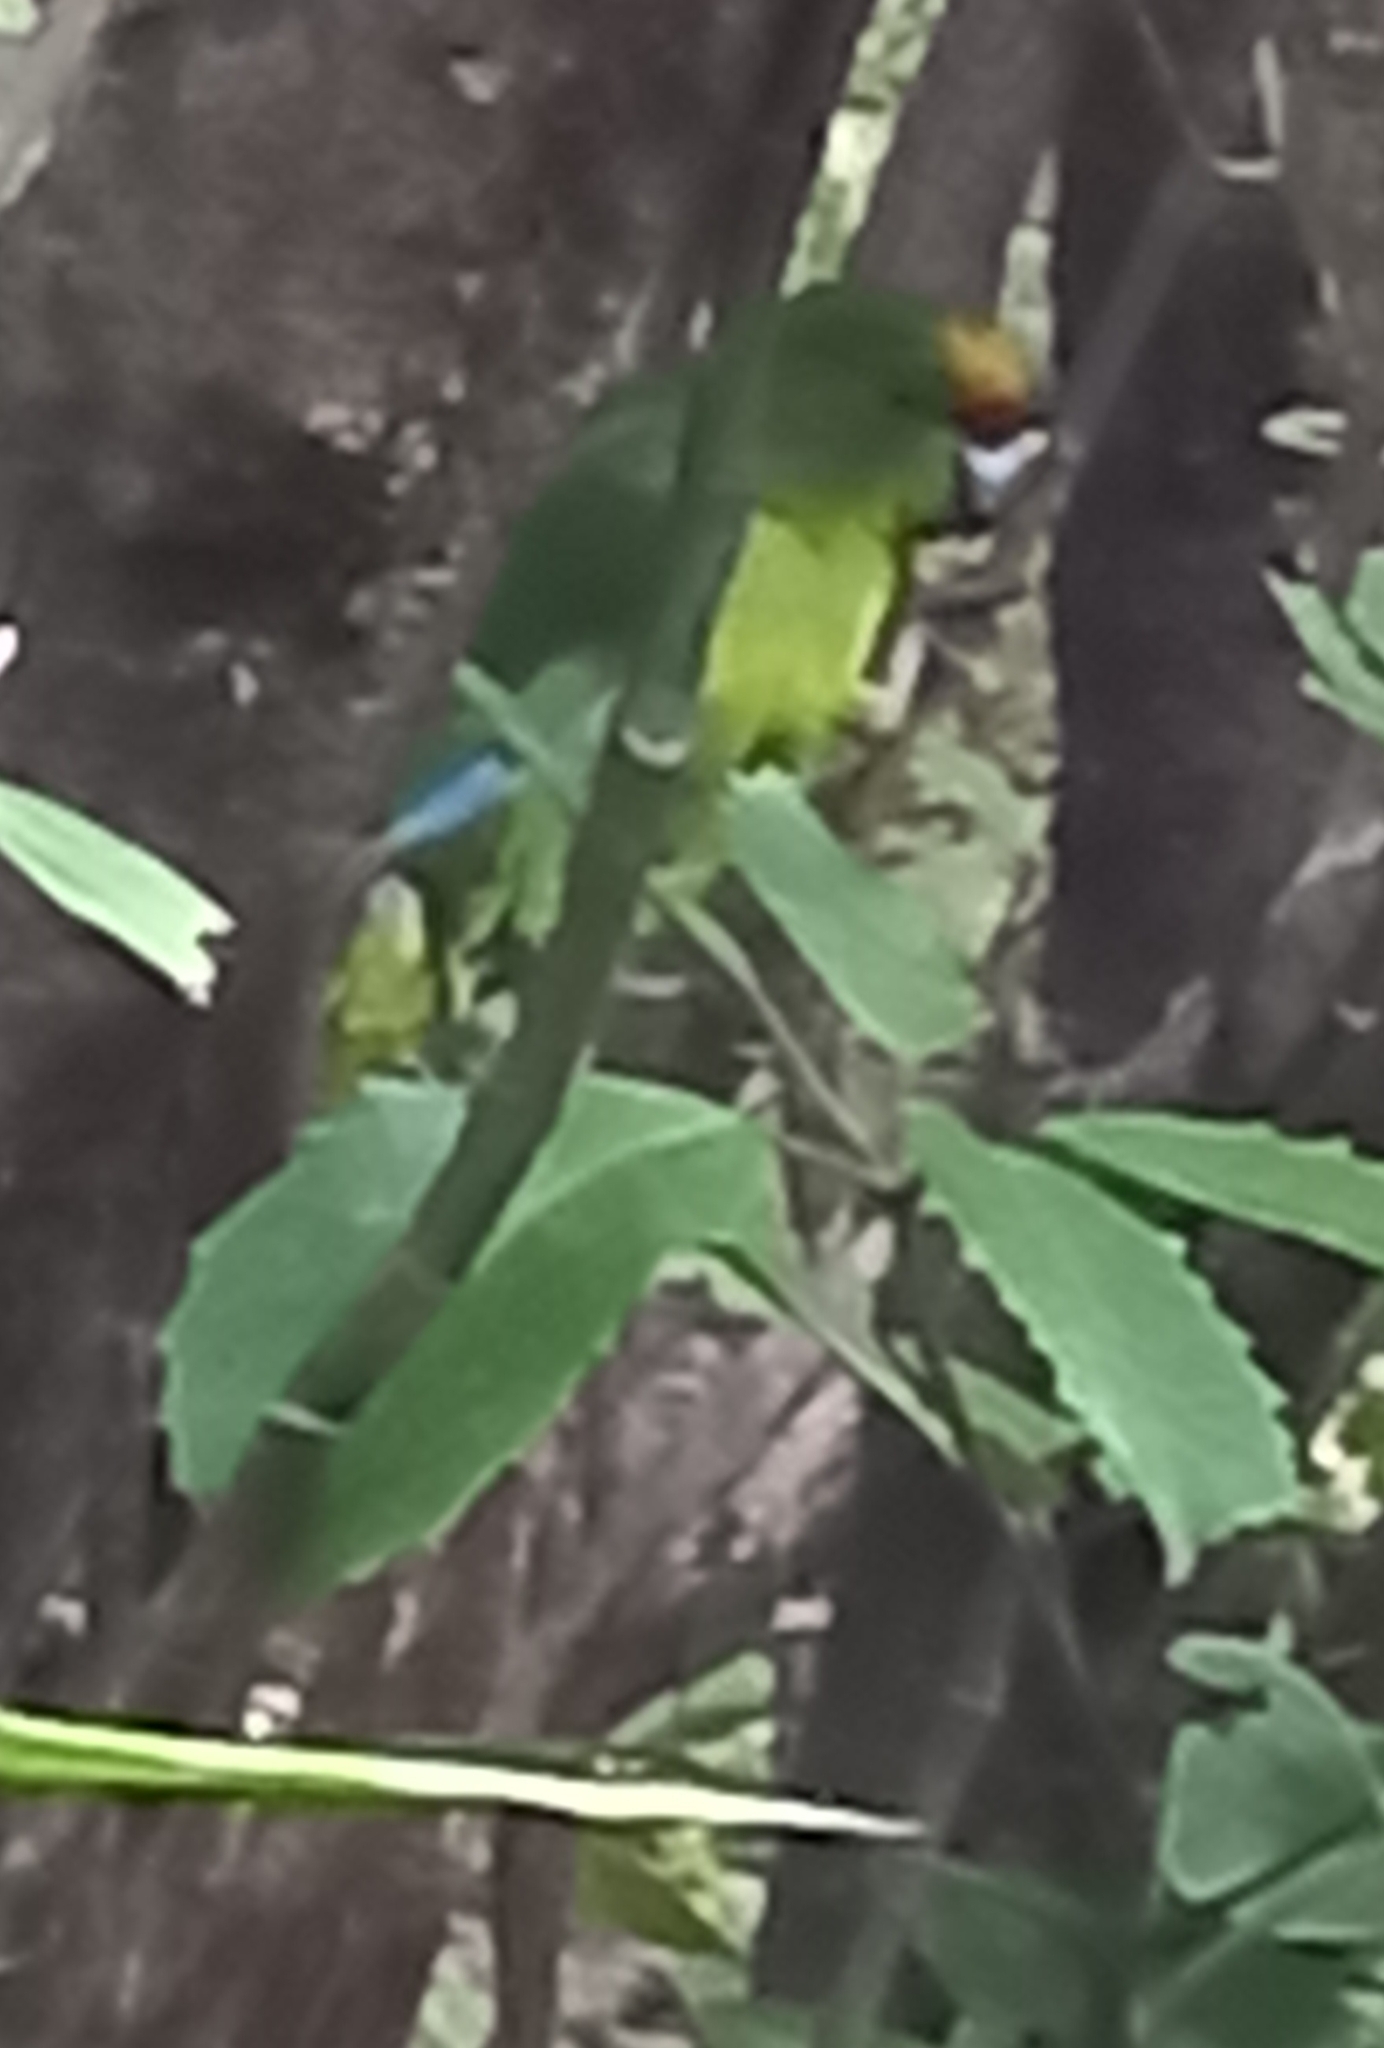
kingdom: Animalia
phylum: Chordata
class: Aves
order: Psittaciformes
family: Psittacidae
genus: Cyanoramphus
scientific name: Cyanoramphus auriceps
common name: Yellow-crowned parakeet
